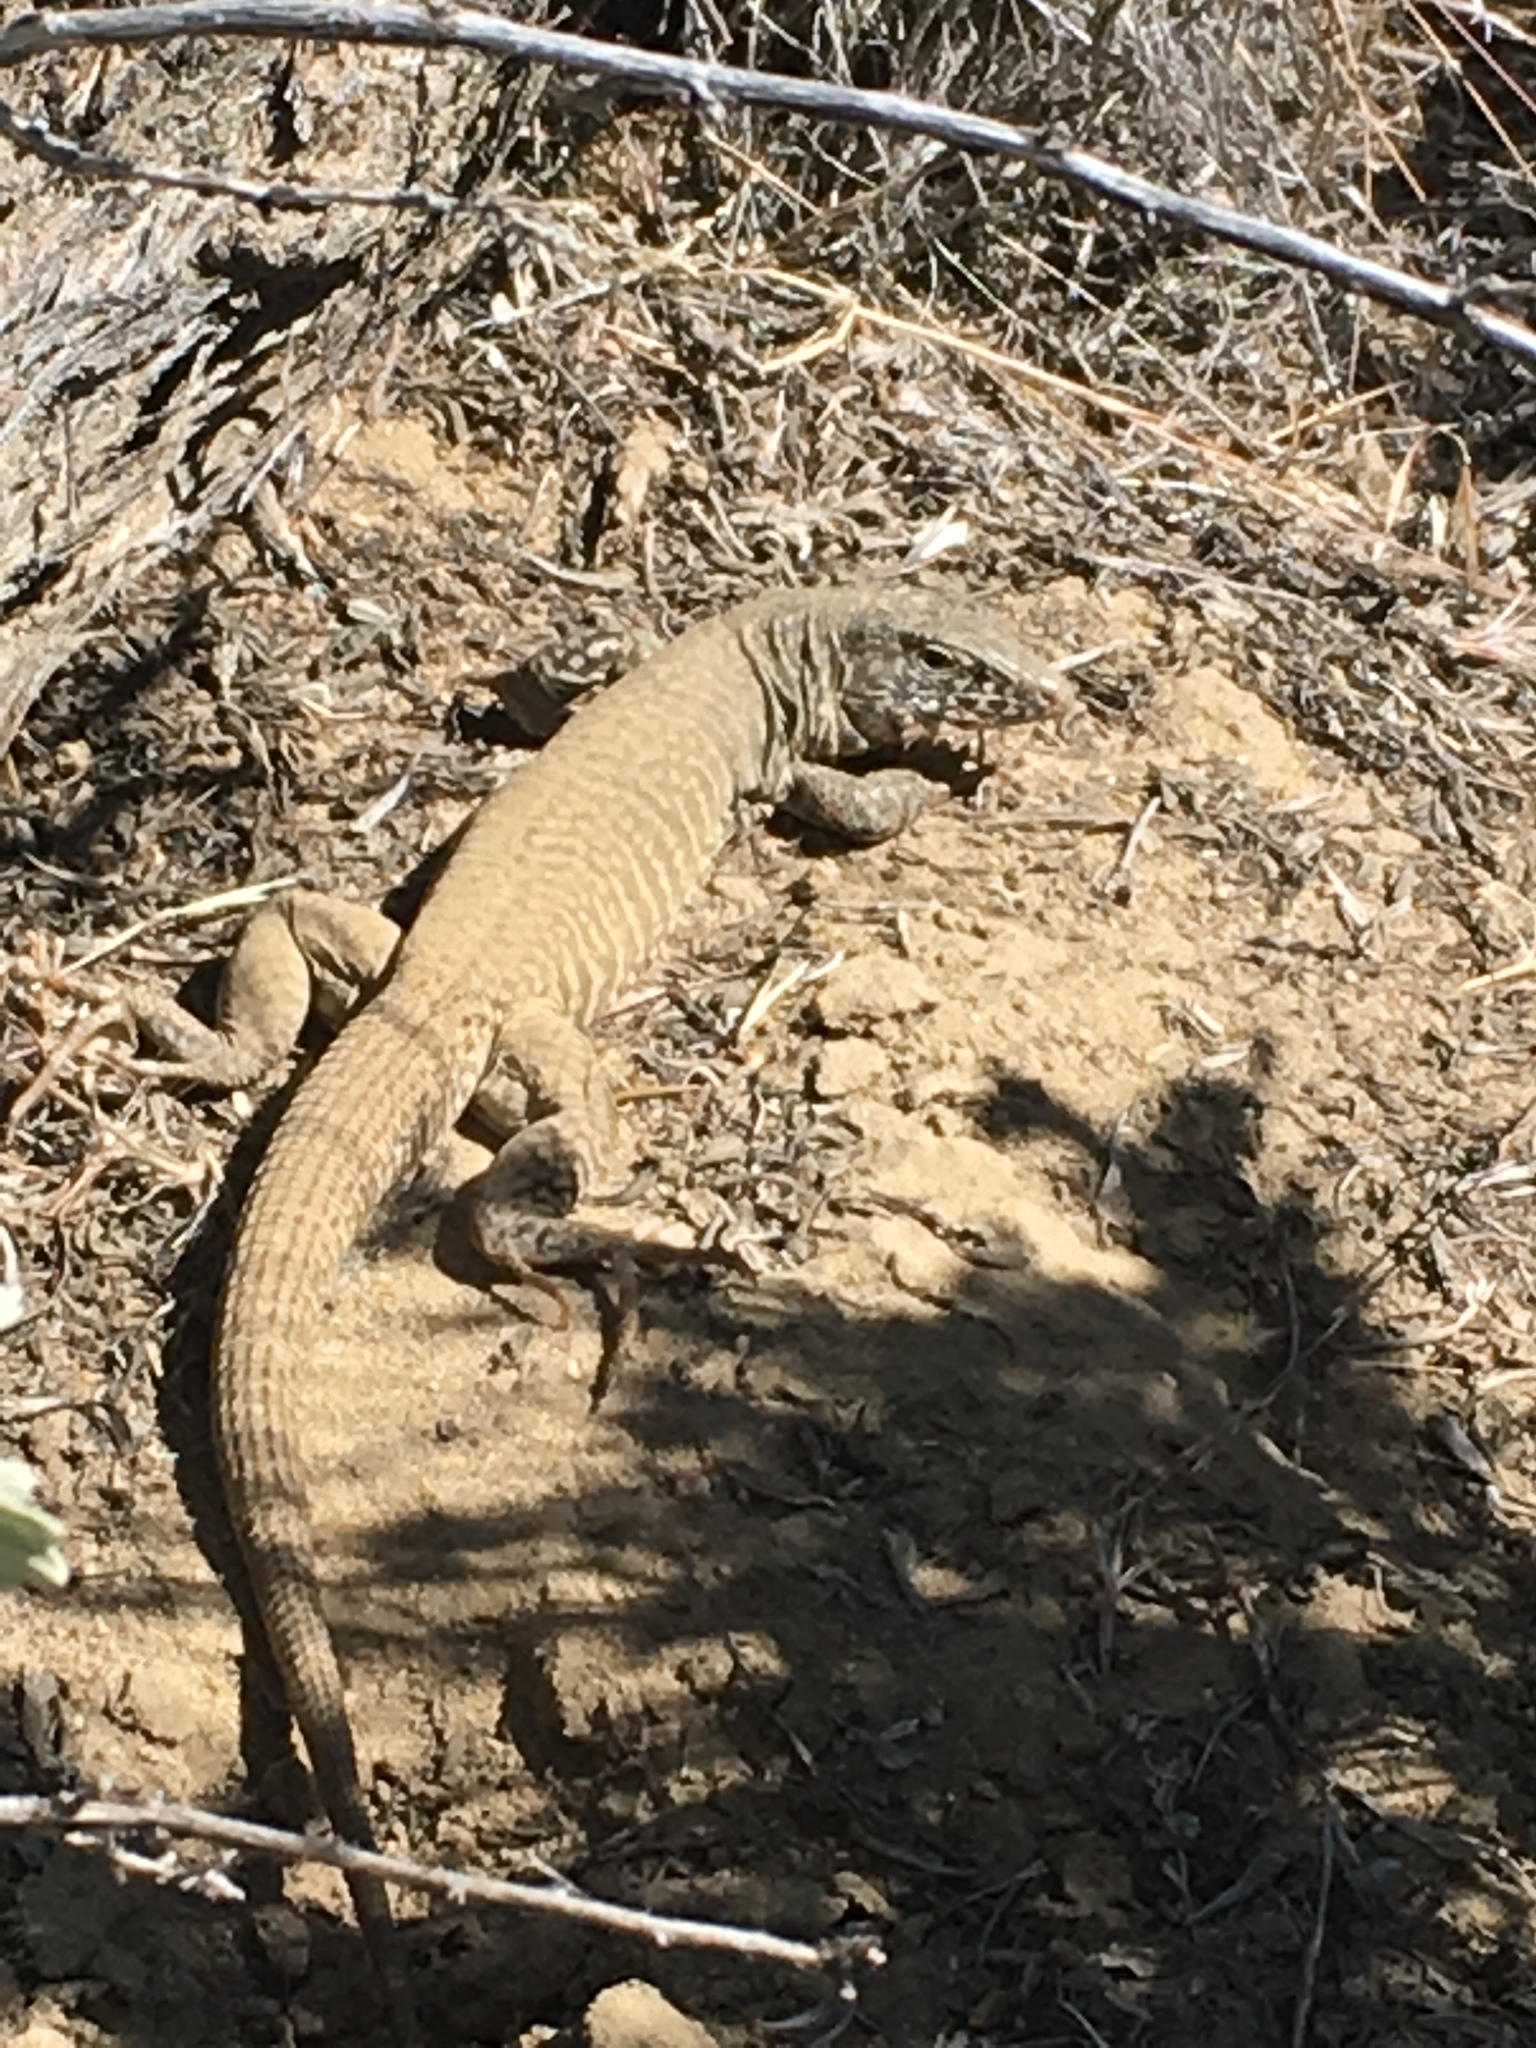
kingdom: Animalia
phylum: Chordata
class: Squamata
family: Teiidae
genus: Aspidoscelis
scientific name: Aspidoscelis tigris
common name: Tiger whiptail
